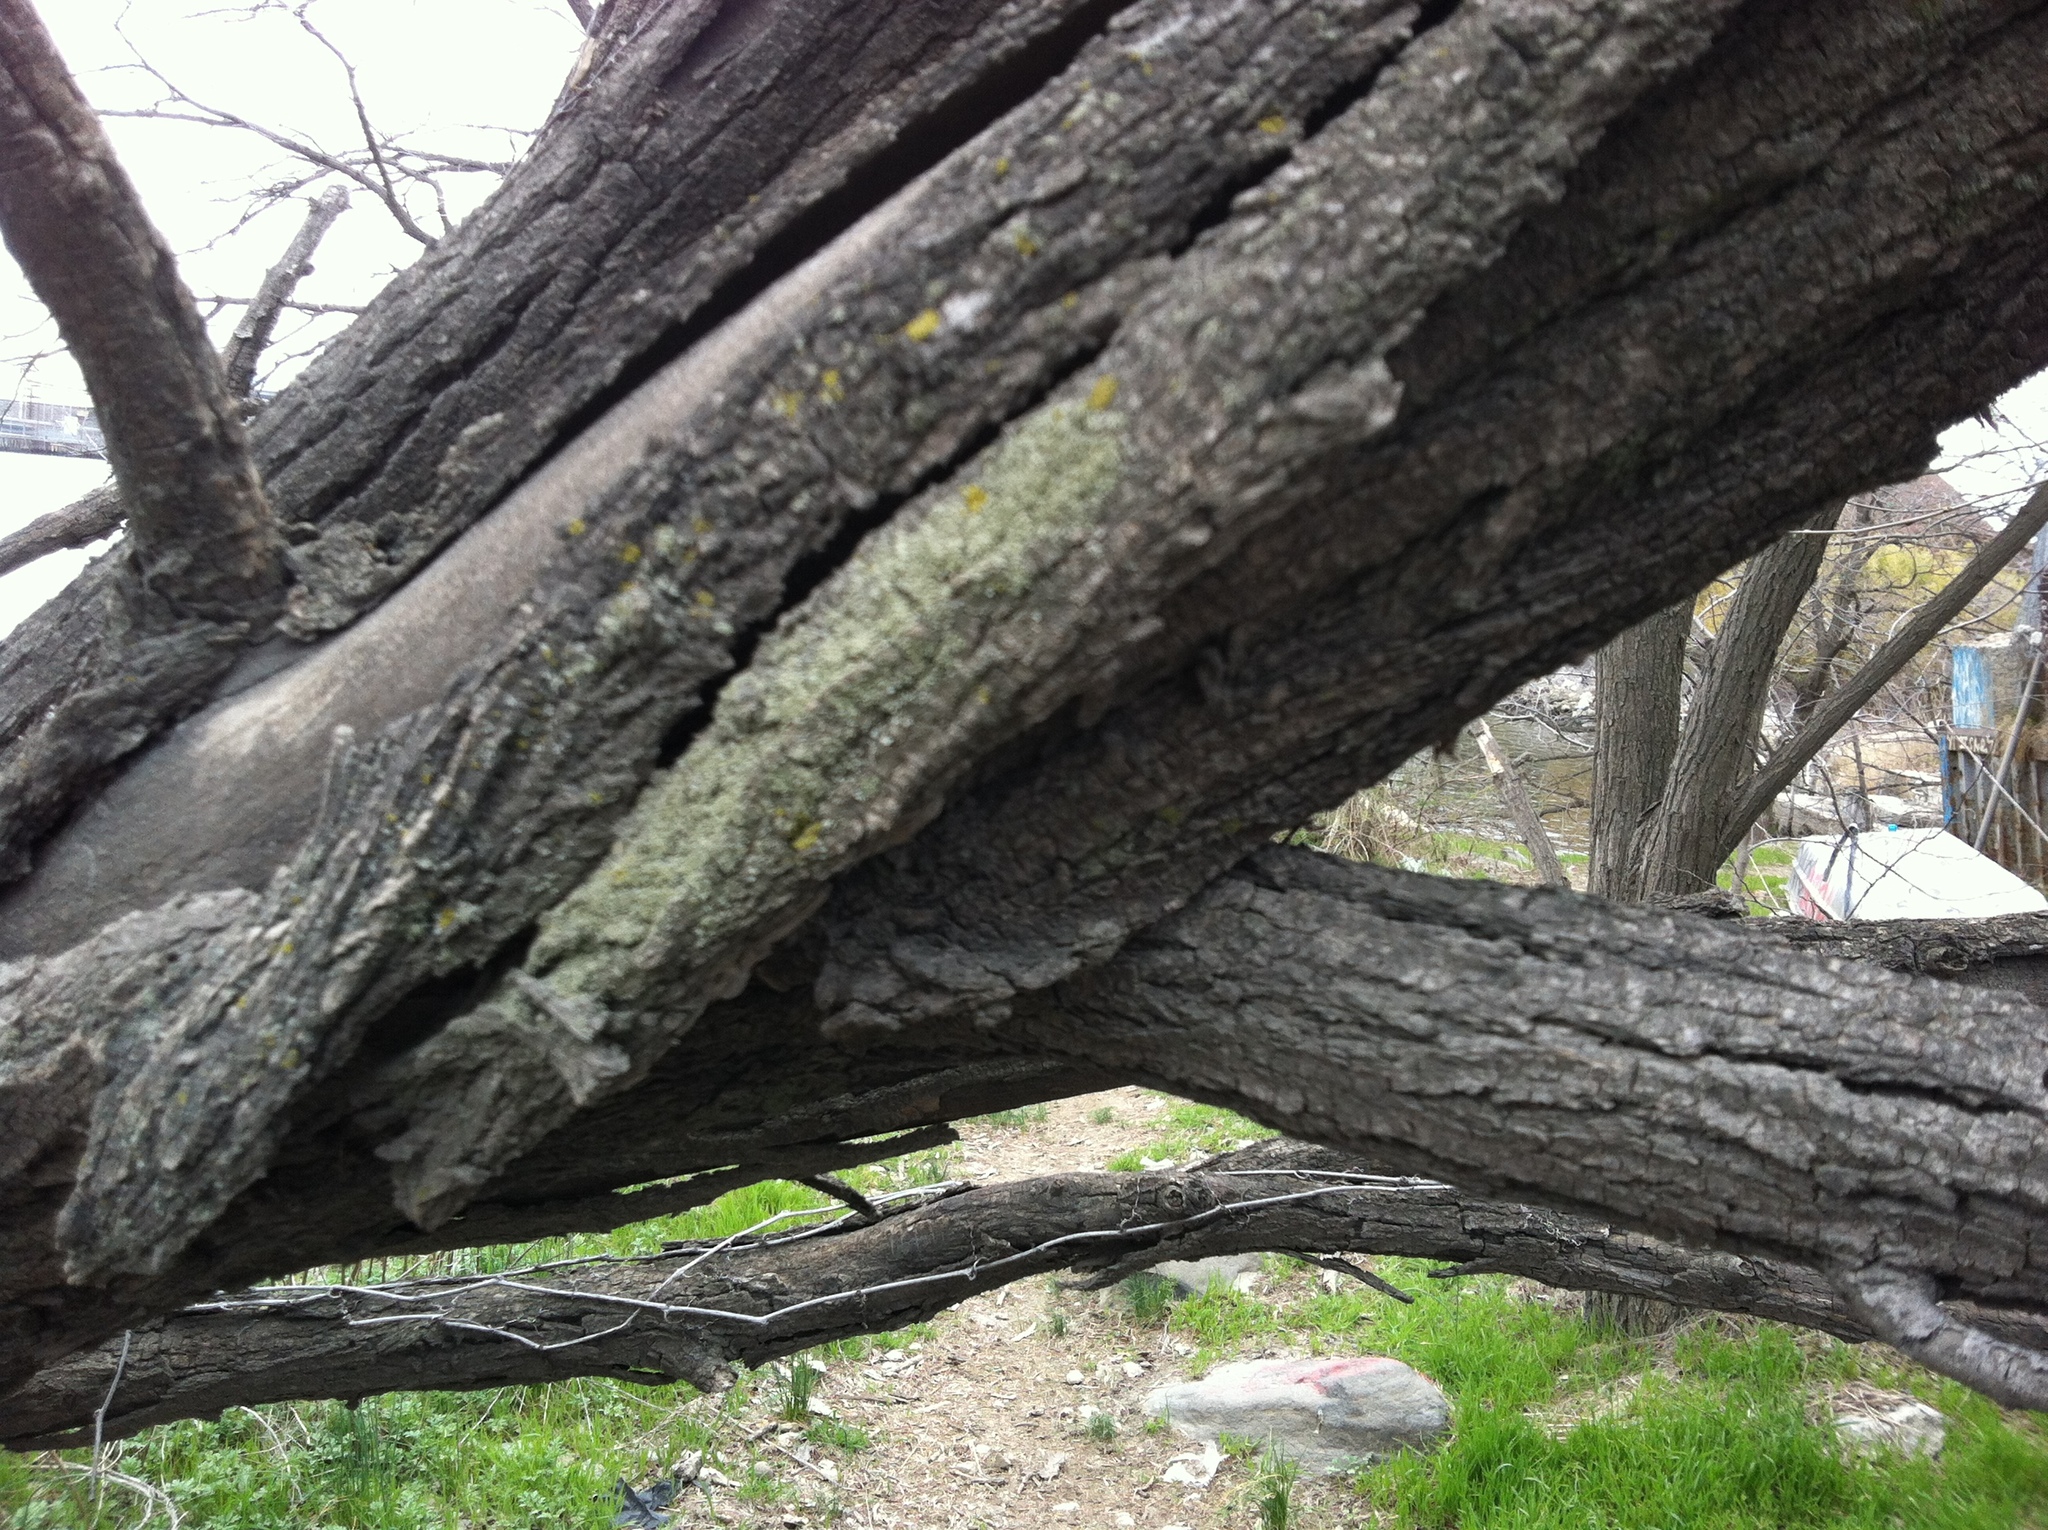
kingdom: Plantae
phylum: Tracheophyta
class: Magnoliopsida
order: Fabales
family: Fabaceae
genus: Robinia
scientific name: Robinia pseudoacacia
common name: Black locust
